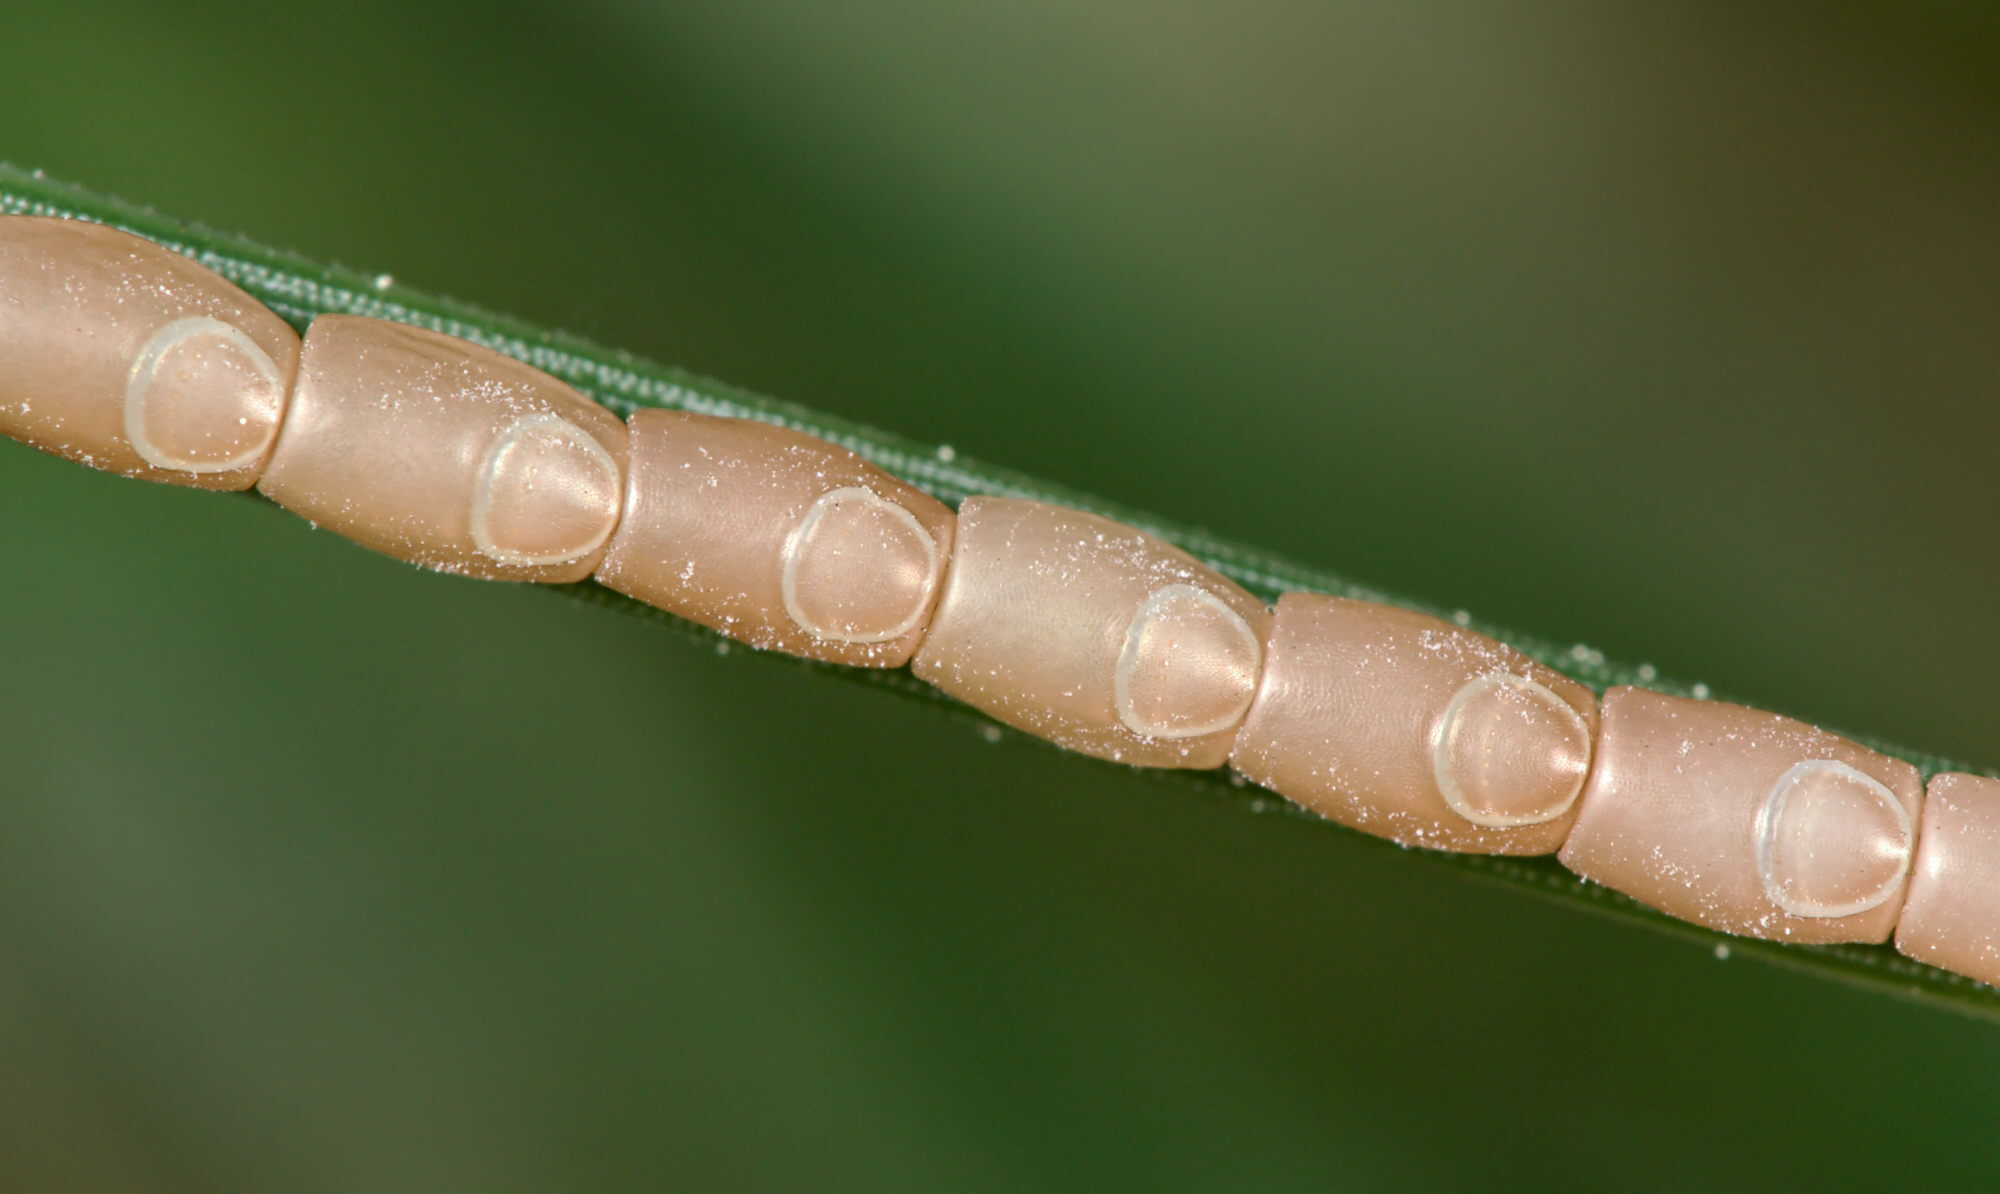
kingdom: Animalia
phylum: Arthropoda
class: Insecta
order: Hemiptera
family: Coreidae
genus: Leptoglossus
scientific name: Leptoglossus occidentalis
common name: Western conifer-seed bug
